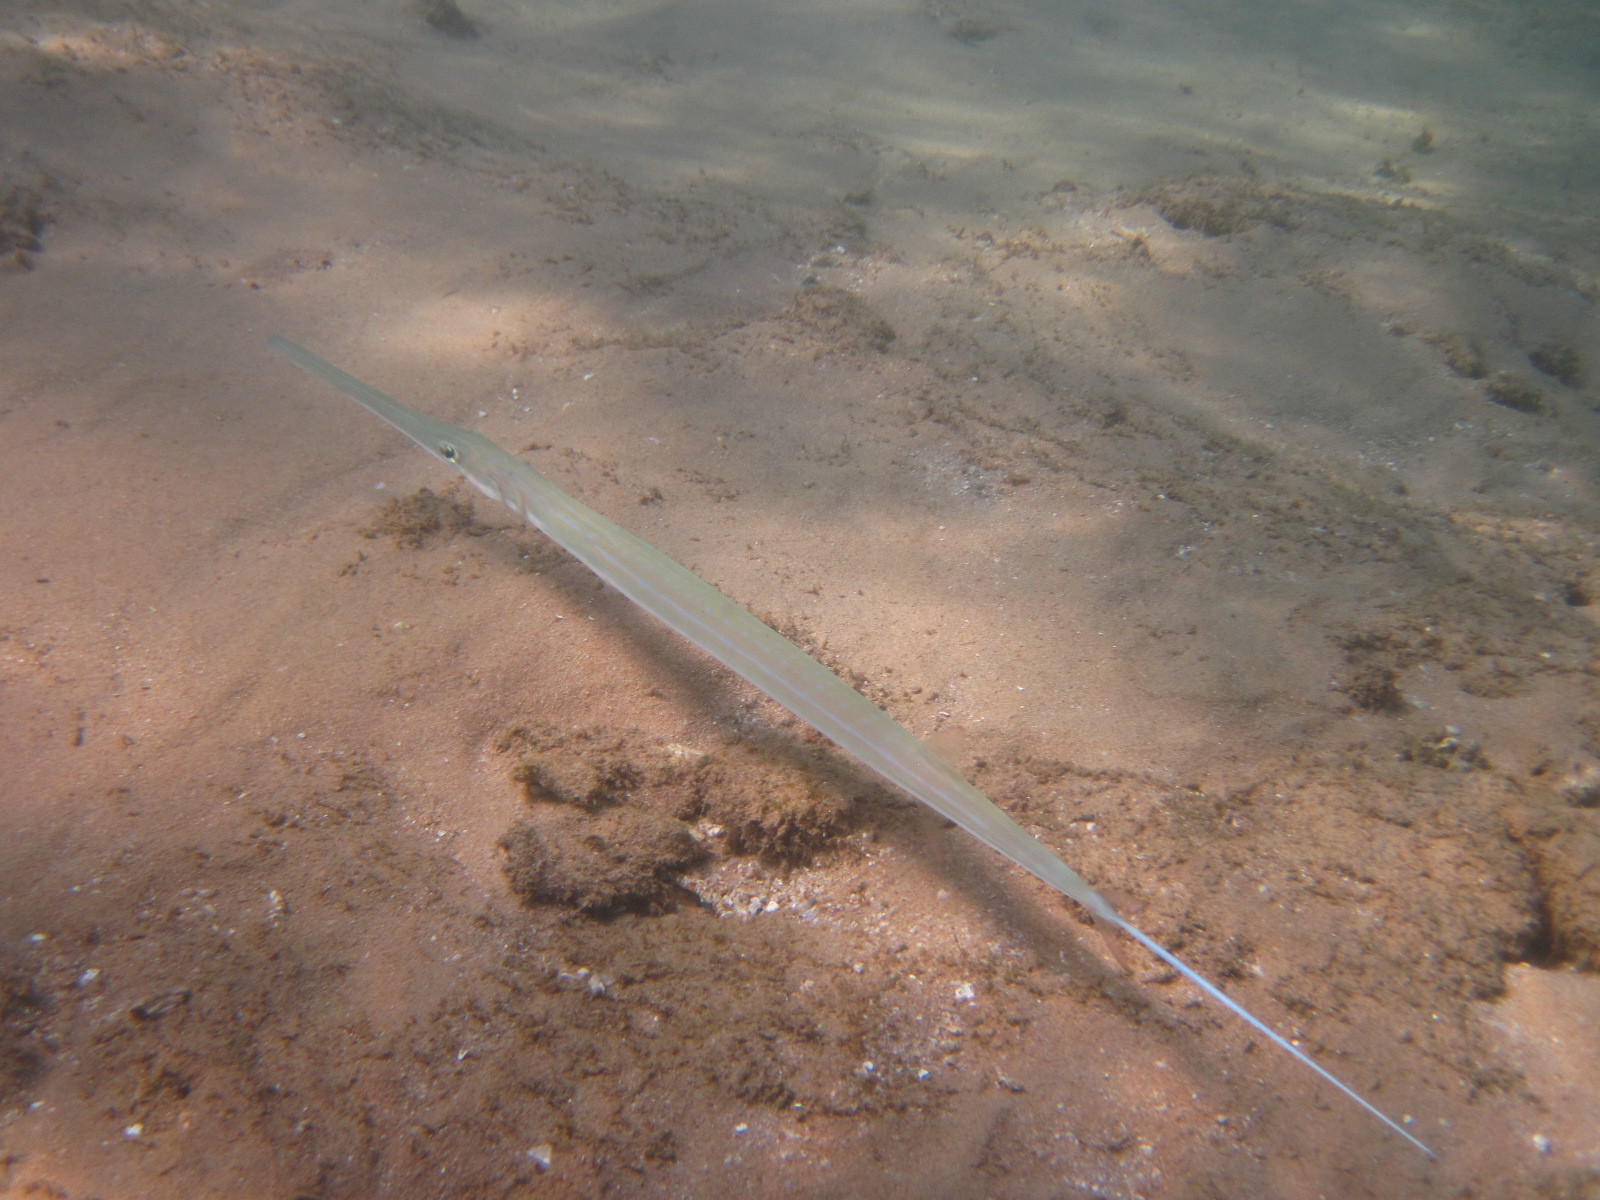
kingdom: Animalia
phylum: Chordata
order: Syngnathiformes
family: Fistulariidae
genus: Fistularia
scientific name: Fistularia commersonii
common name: Bluespotted cornetfish
